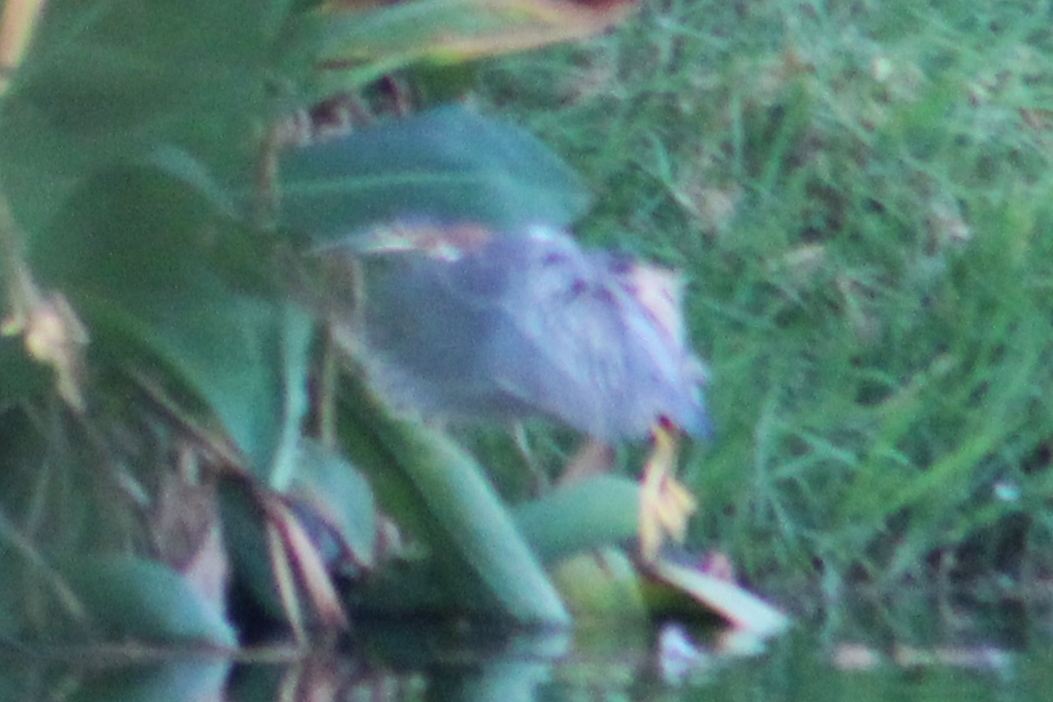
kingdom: Animalia
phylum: Chordata
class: Aves
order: Pelecaniformes
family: Ardeidae
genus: Butorides
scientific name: Butorides virescens
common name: Green heron
